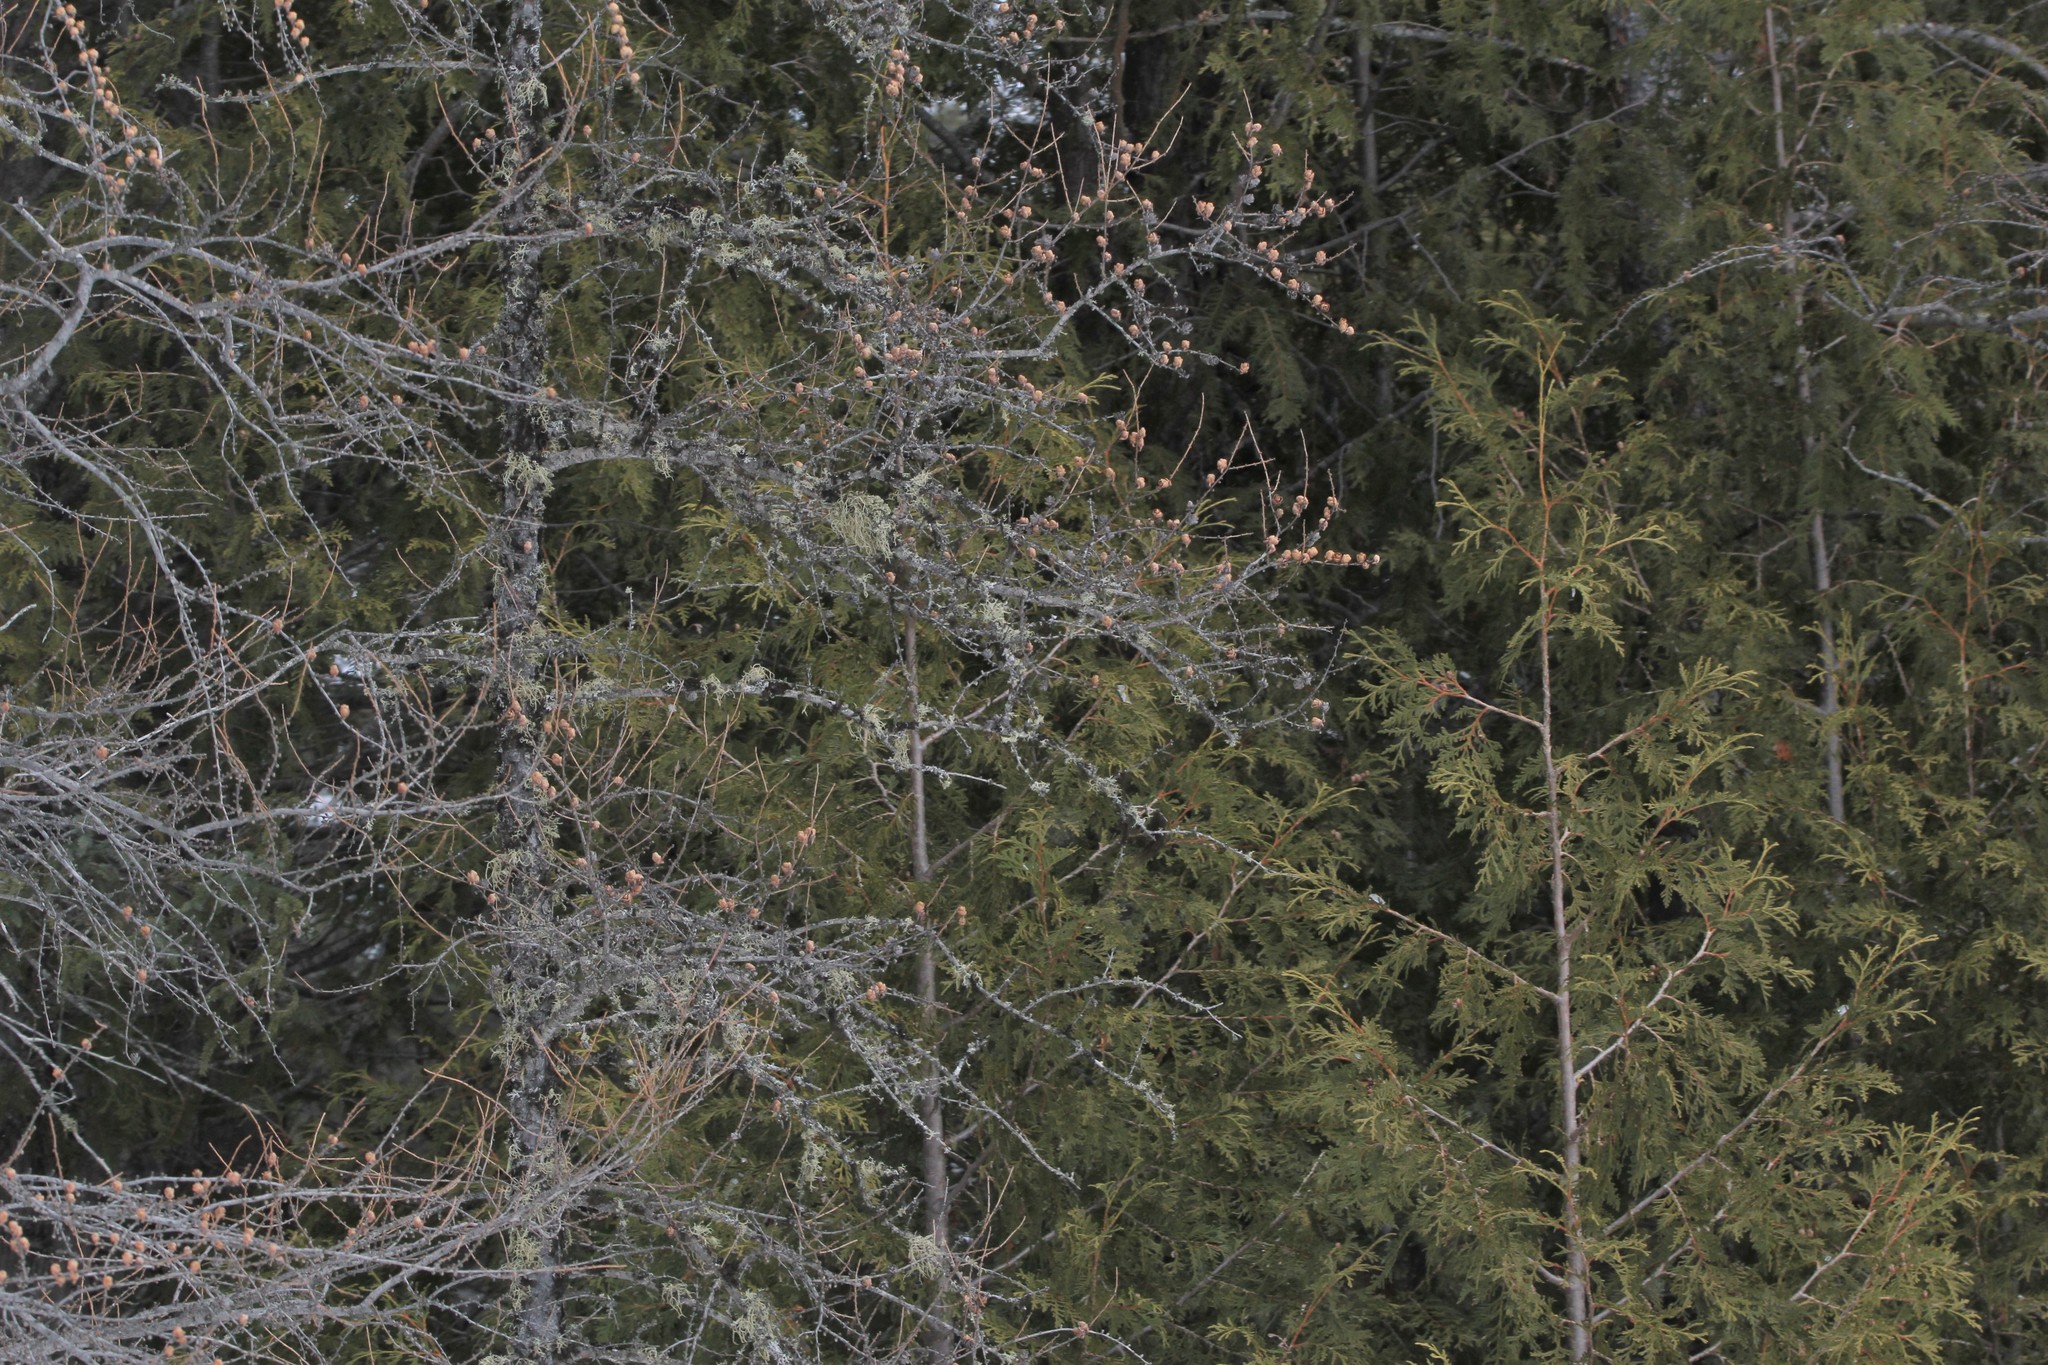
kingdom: Plantae
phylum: Tracheophyta
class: Pinopsida
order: Pinales
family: Cupressaceae
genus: Thuja
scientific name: Thuja occidentalis
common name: Northern white-cedar
